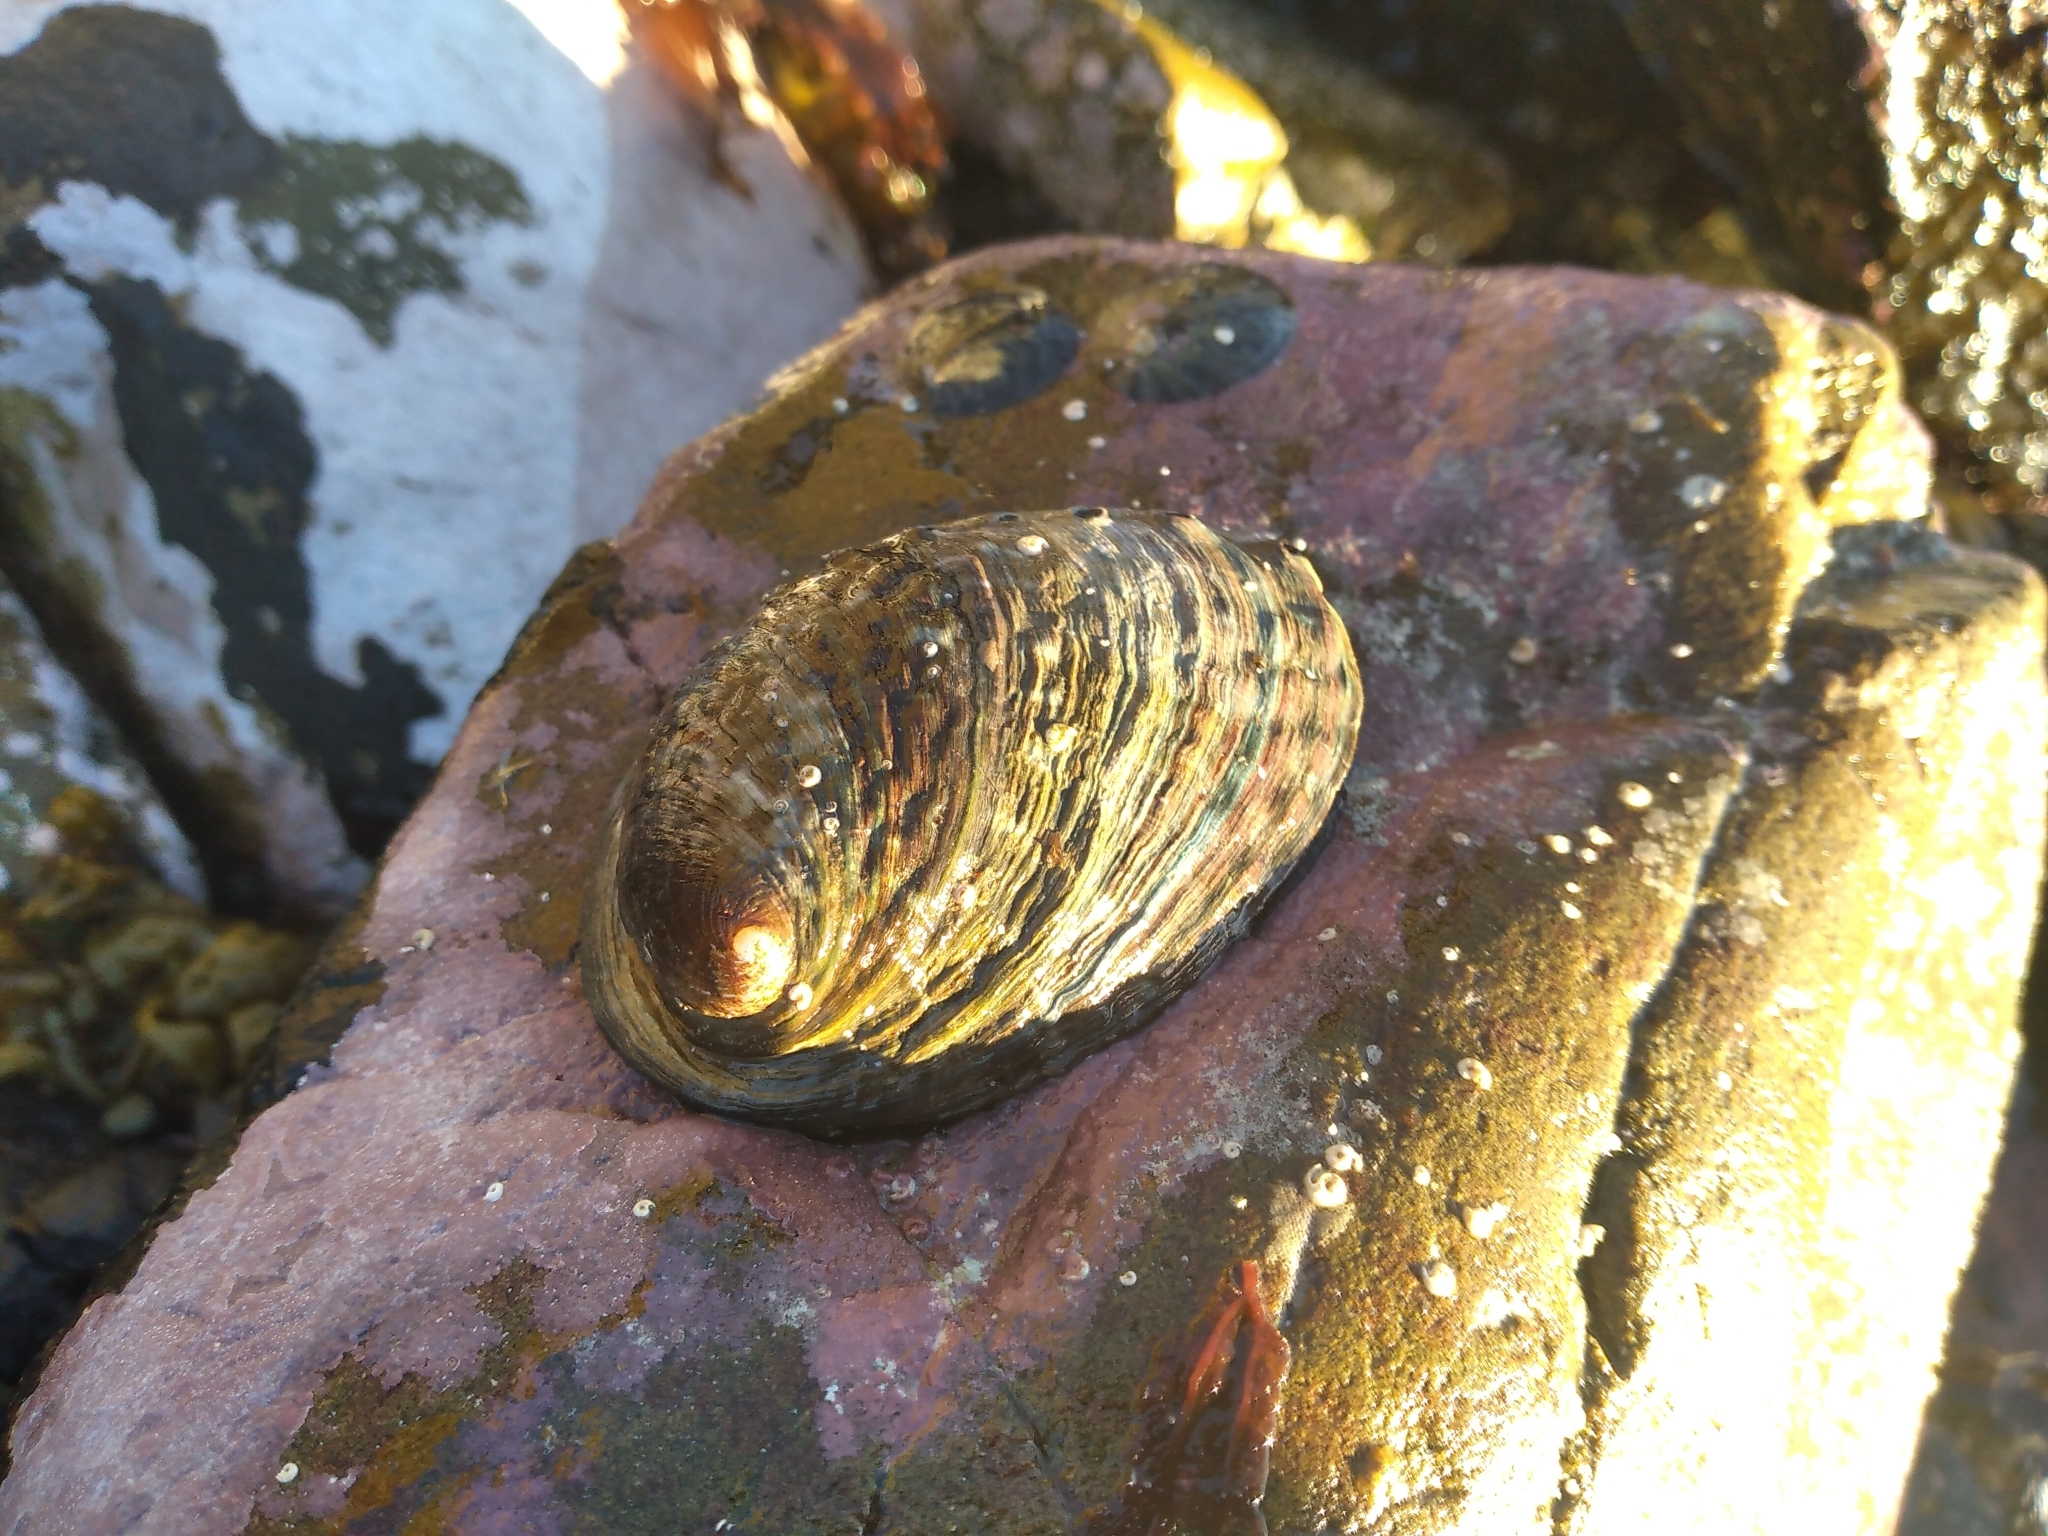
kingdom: Animalia
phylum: Mollusca
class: Gastropoda
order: Lepetellida
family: Haliotidae
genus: Haliotis
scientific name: Haliotis iris
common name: Abalone
